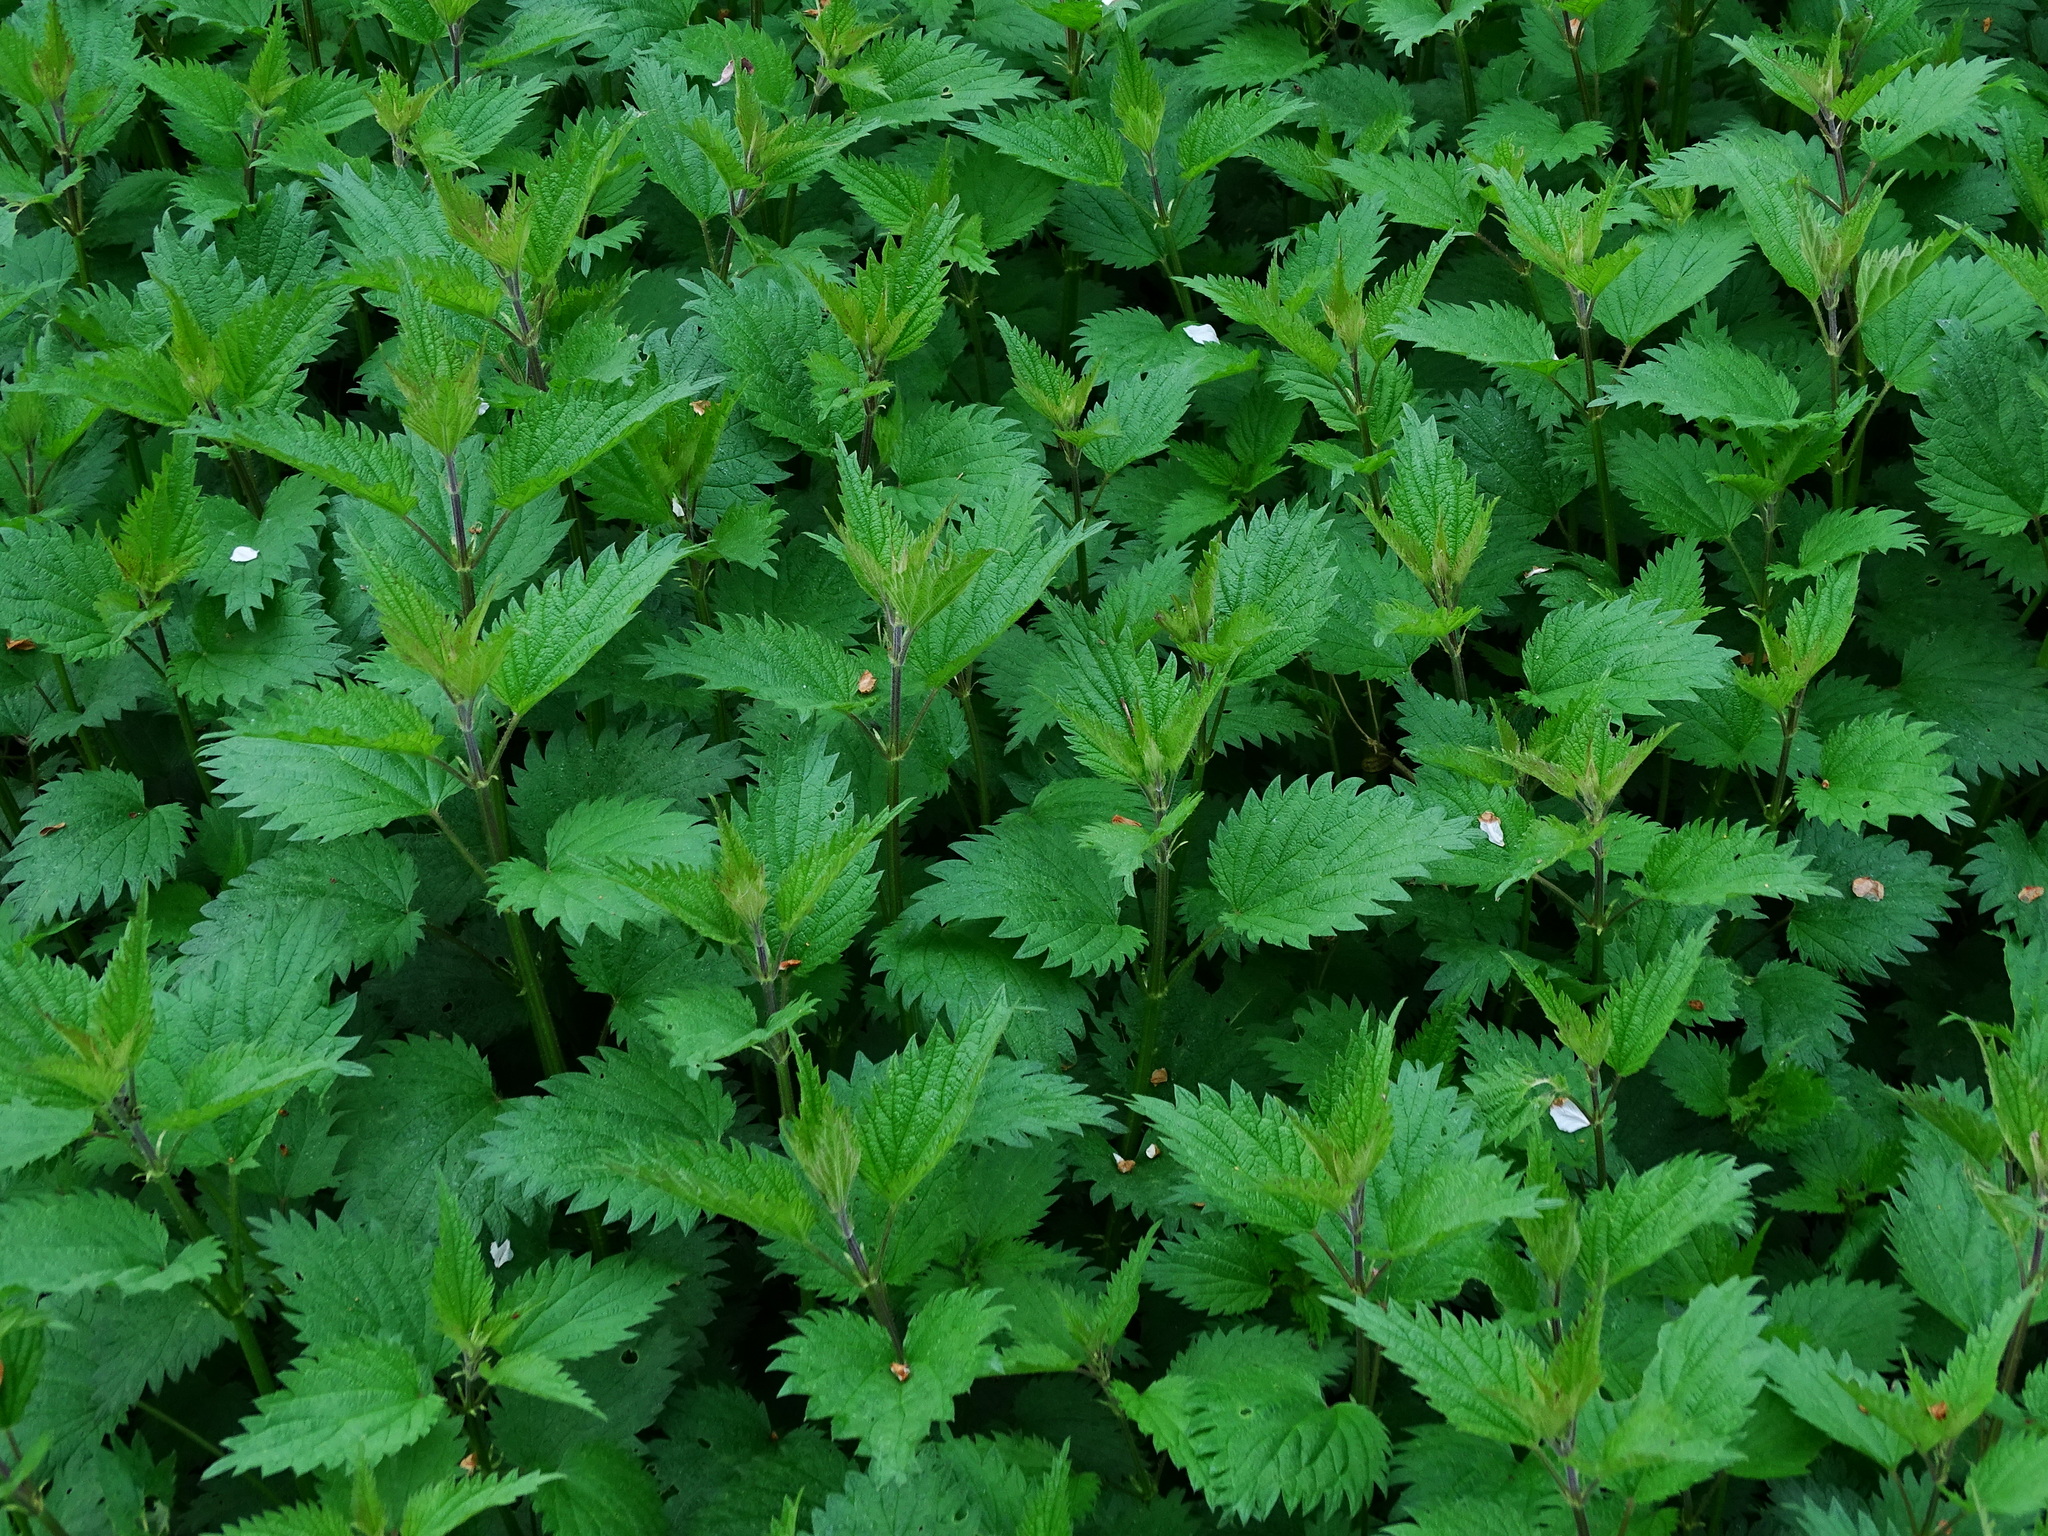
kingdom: Plantae
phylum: Tracheophyta
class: Magnoliopsida
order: Rosales
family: Urticaceae
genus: Urtica
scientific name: Urtica dioica
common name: Common nettle
